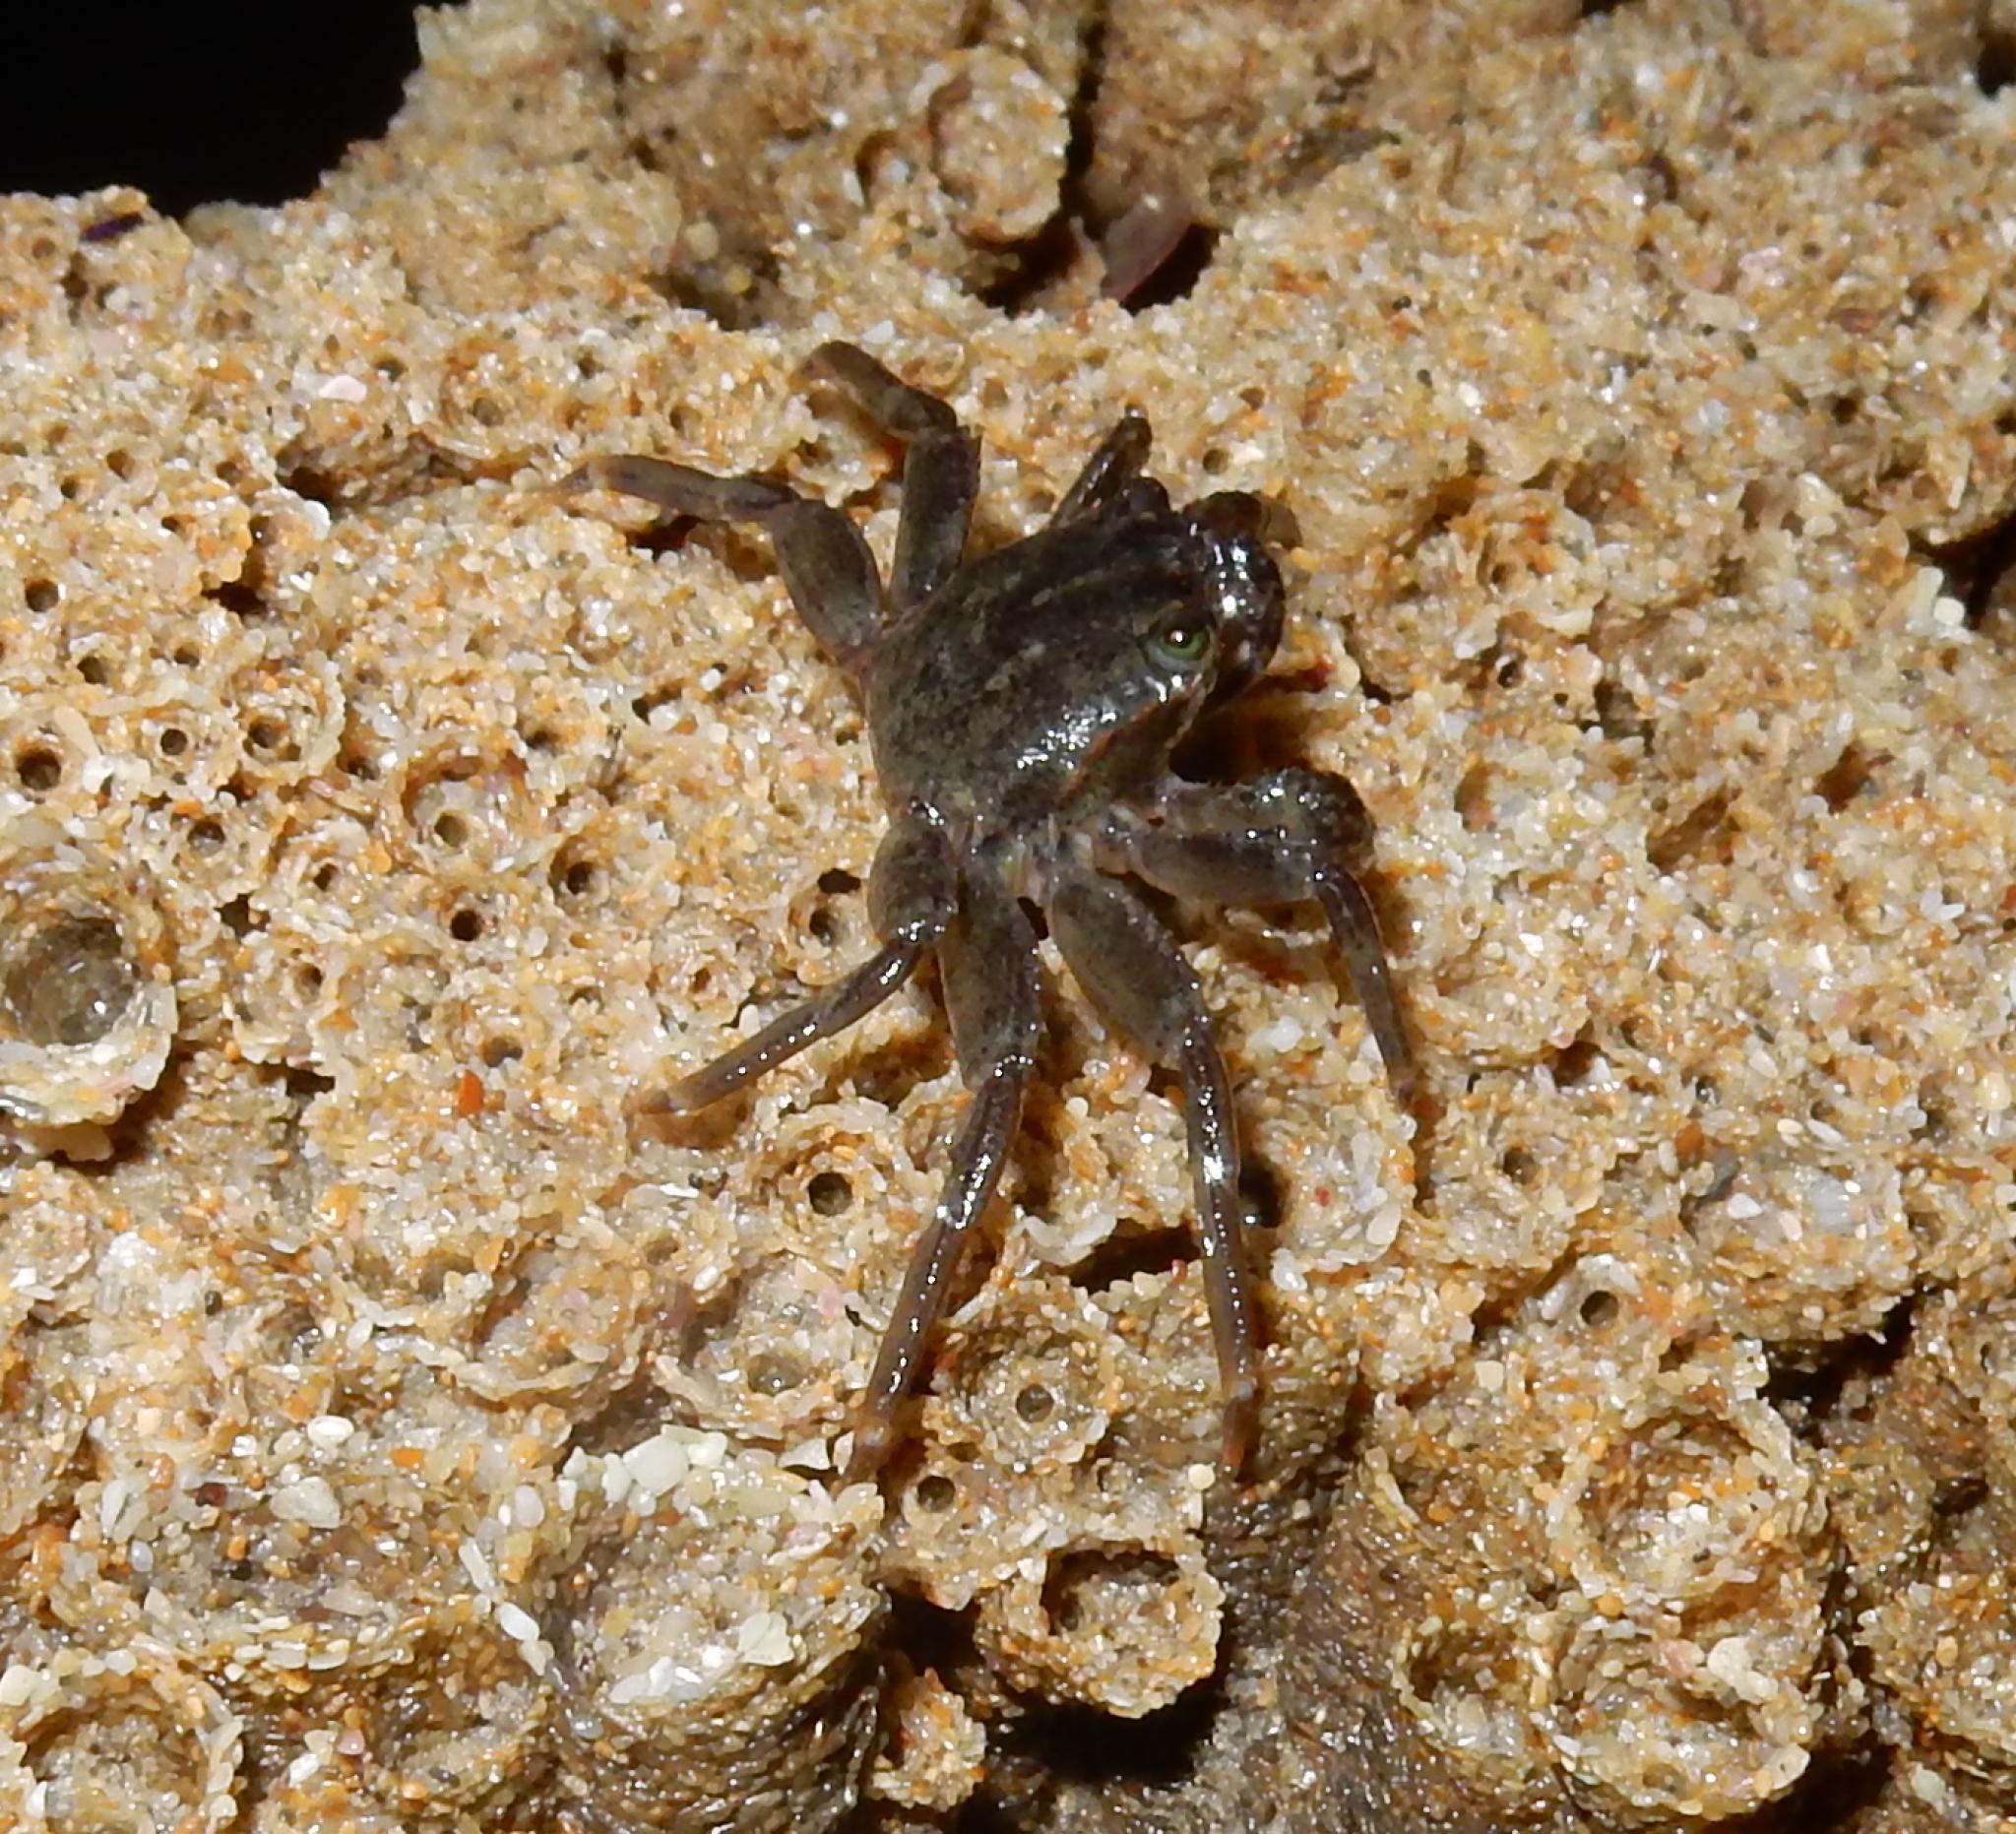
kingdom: Animalia
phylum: Arthropoda
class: Malacostraca
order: Decapoda
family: Grapsidae
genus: Grapsus
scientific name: Grapsus fourmanoiri
